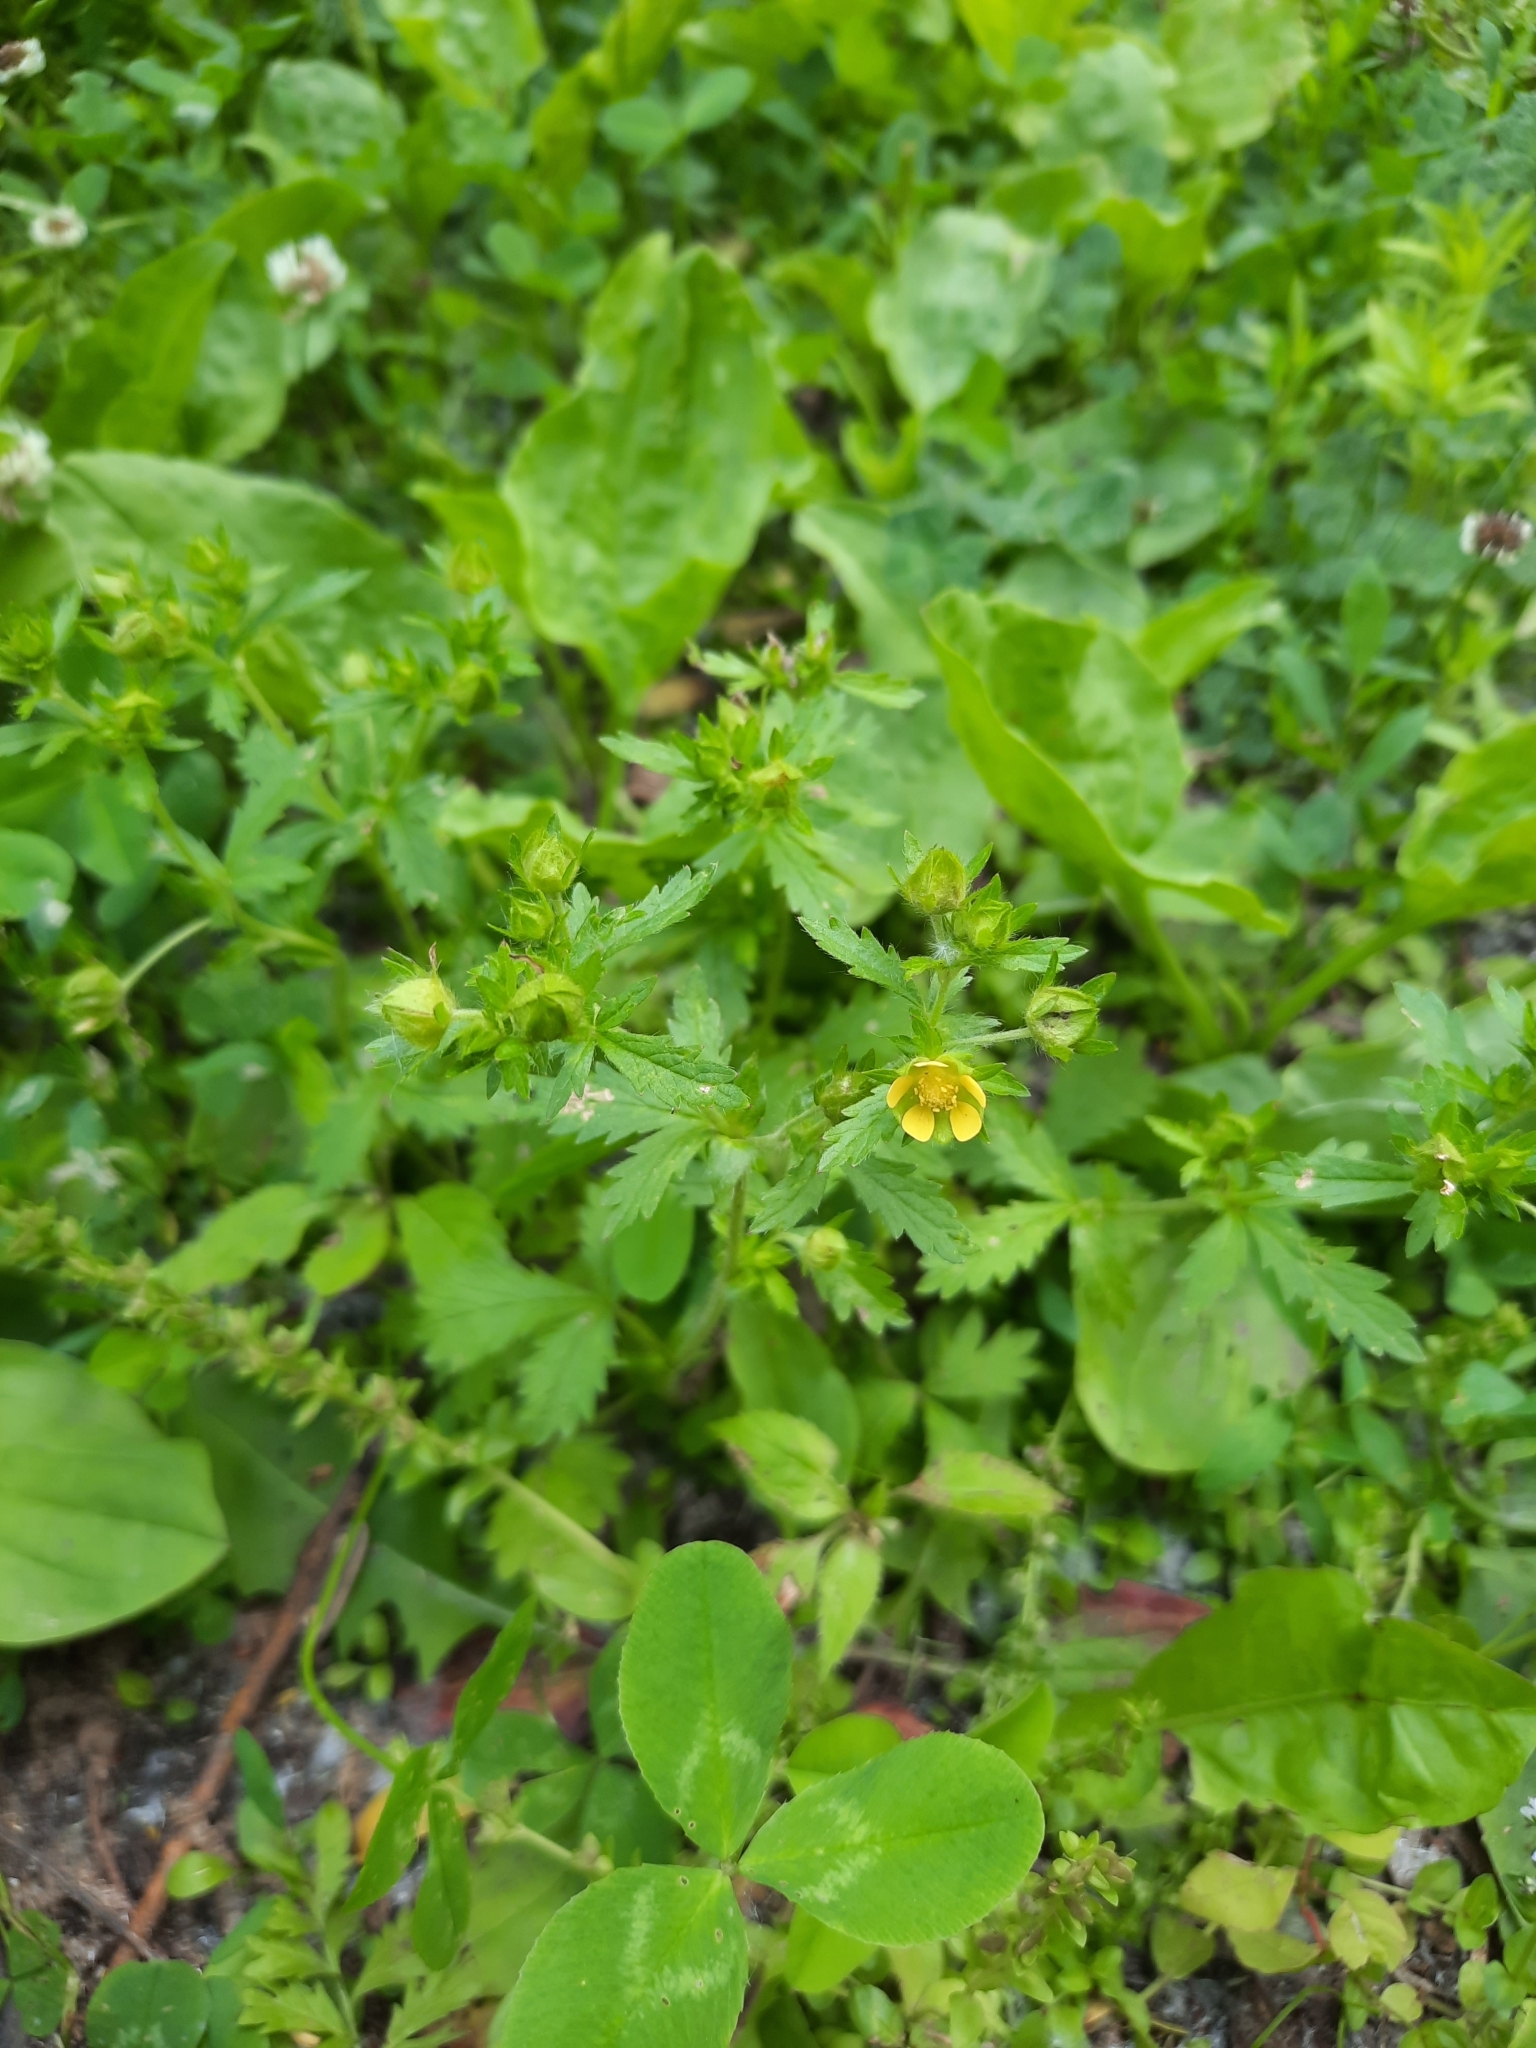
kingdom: Plantae
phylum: Tracheophyta
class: Magnoliopsida
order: Rosales
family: Rosaceae
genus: Potentilla
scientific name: Potentilla norvegica
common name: Ternate-leaved cinquefoil
